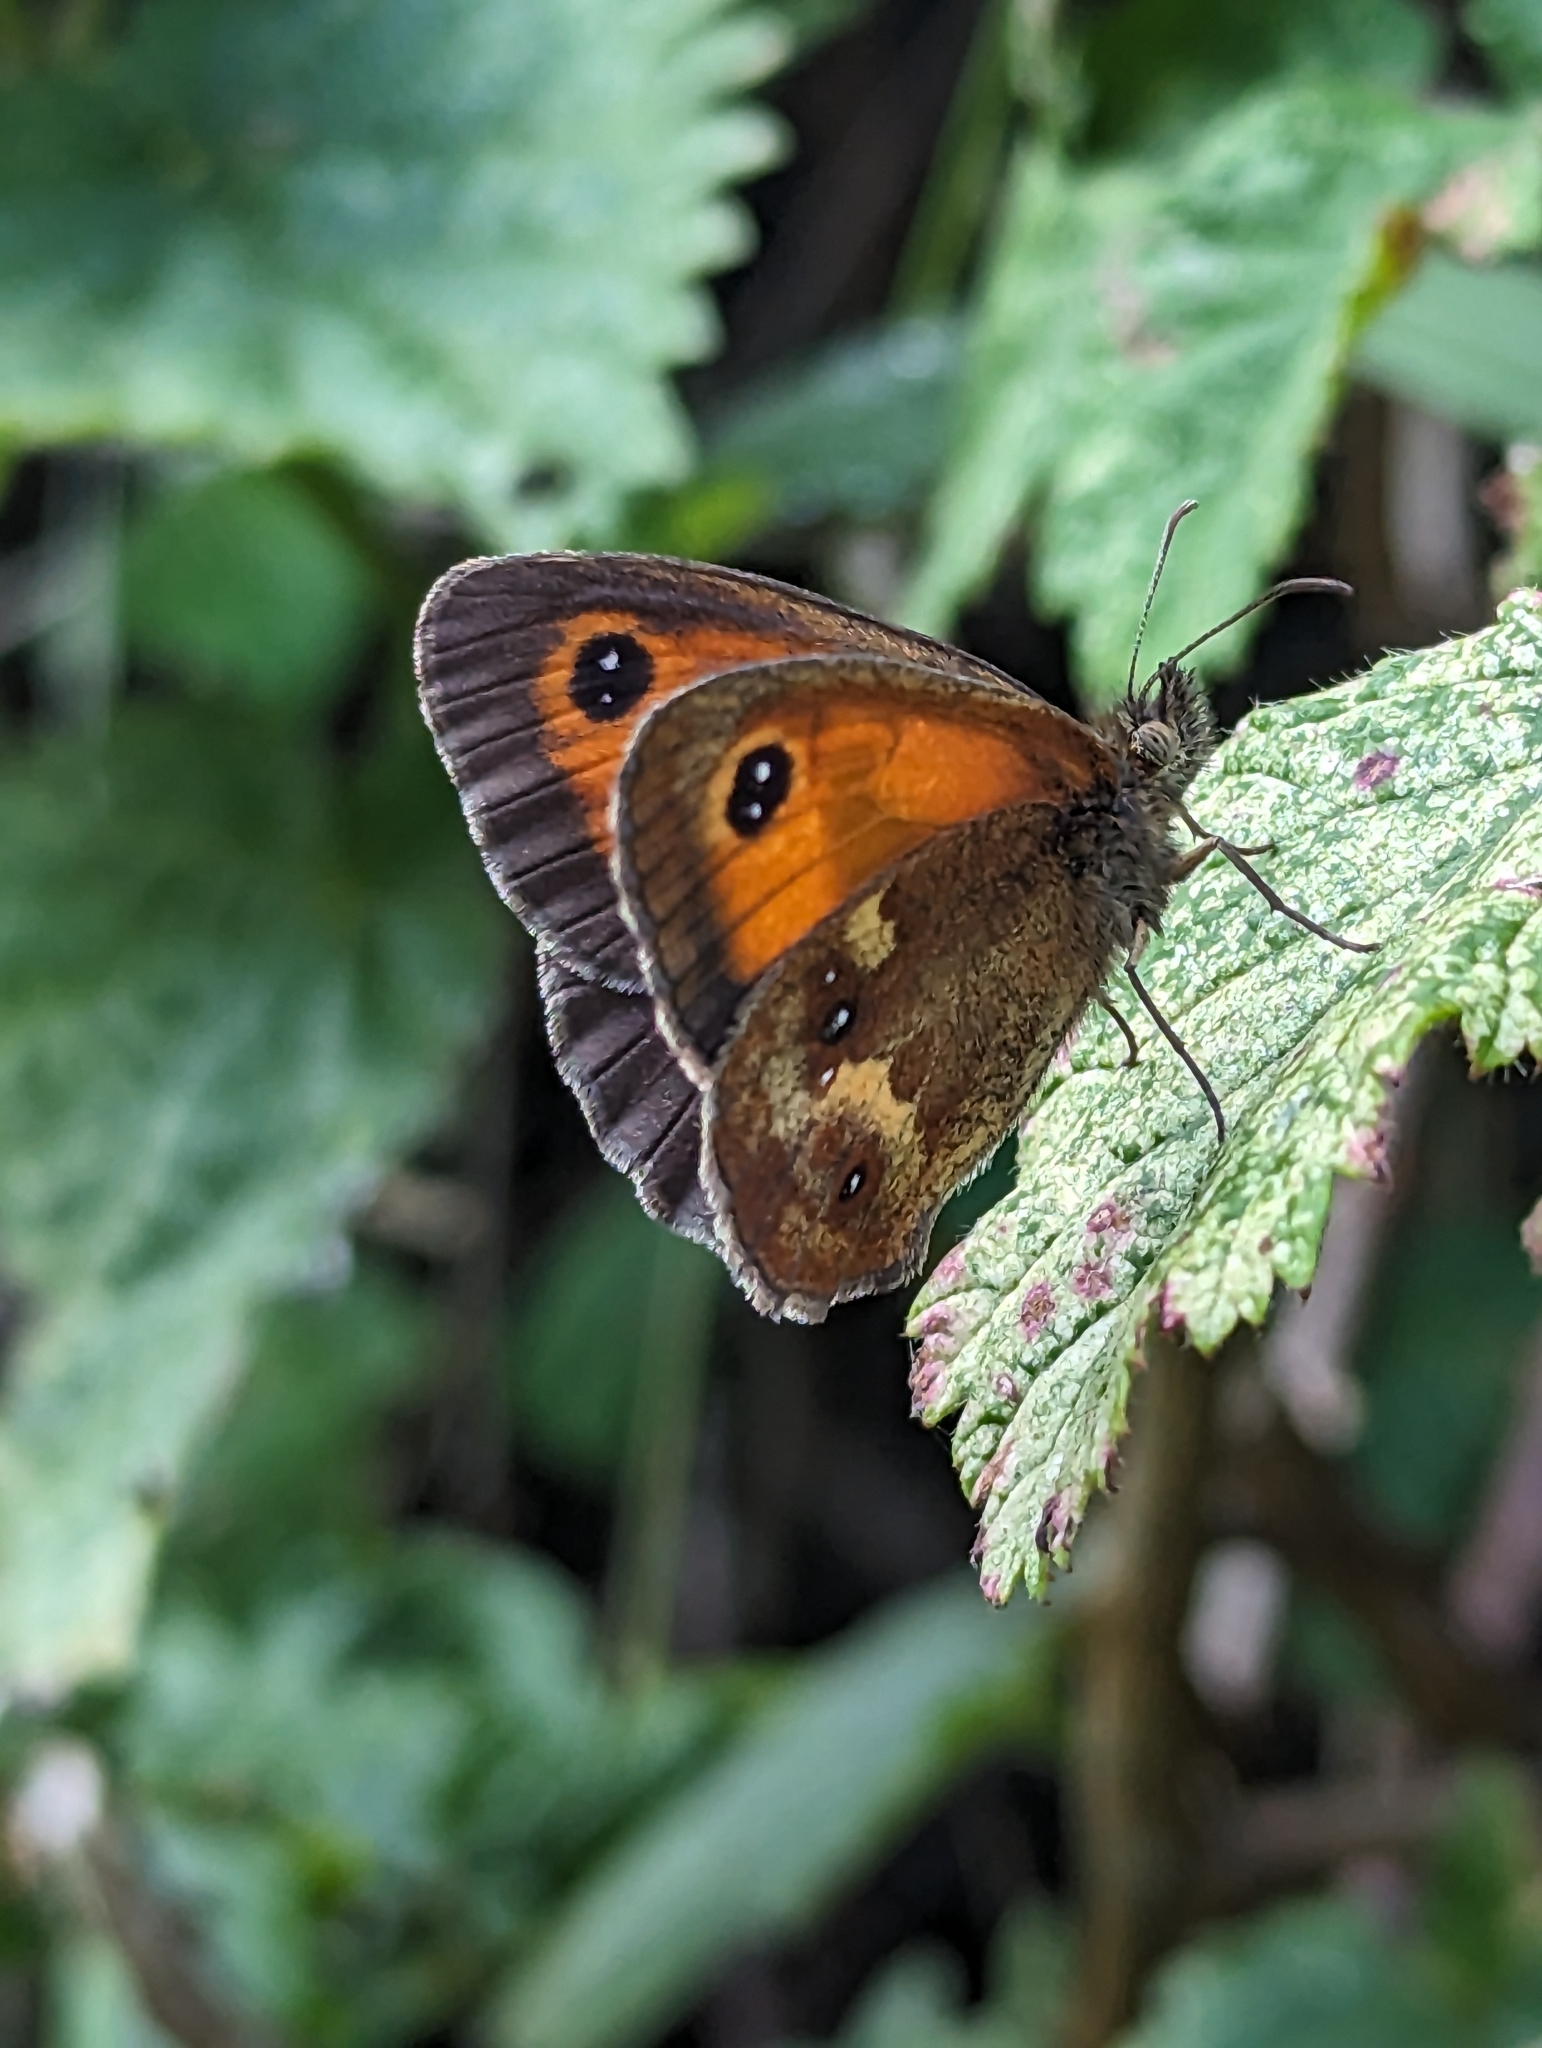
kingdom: Animalia
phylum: Arthropoda
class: Insecta
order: Lepidoptera
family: Nymphalidae
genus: Pyronia
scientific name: Pyronia tithonus
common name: Gatekeeper
